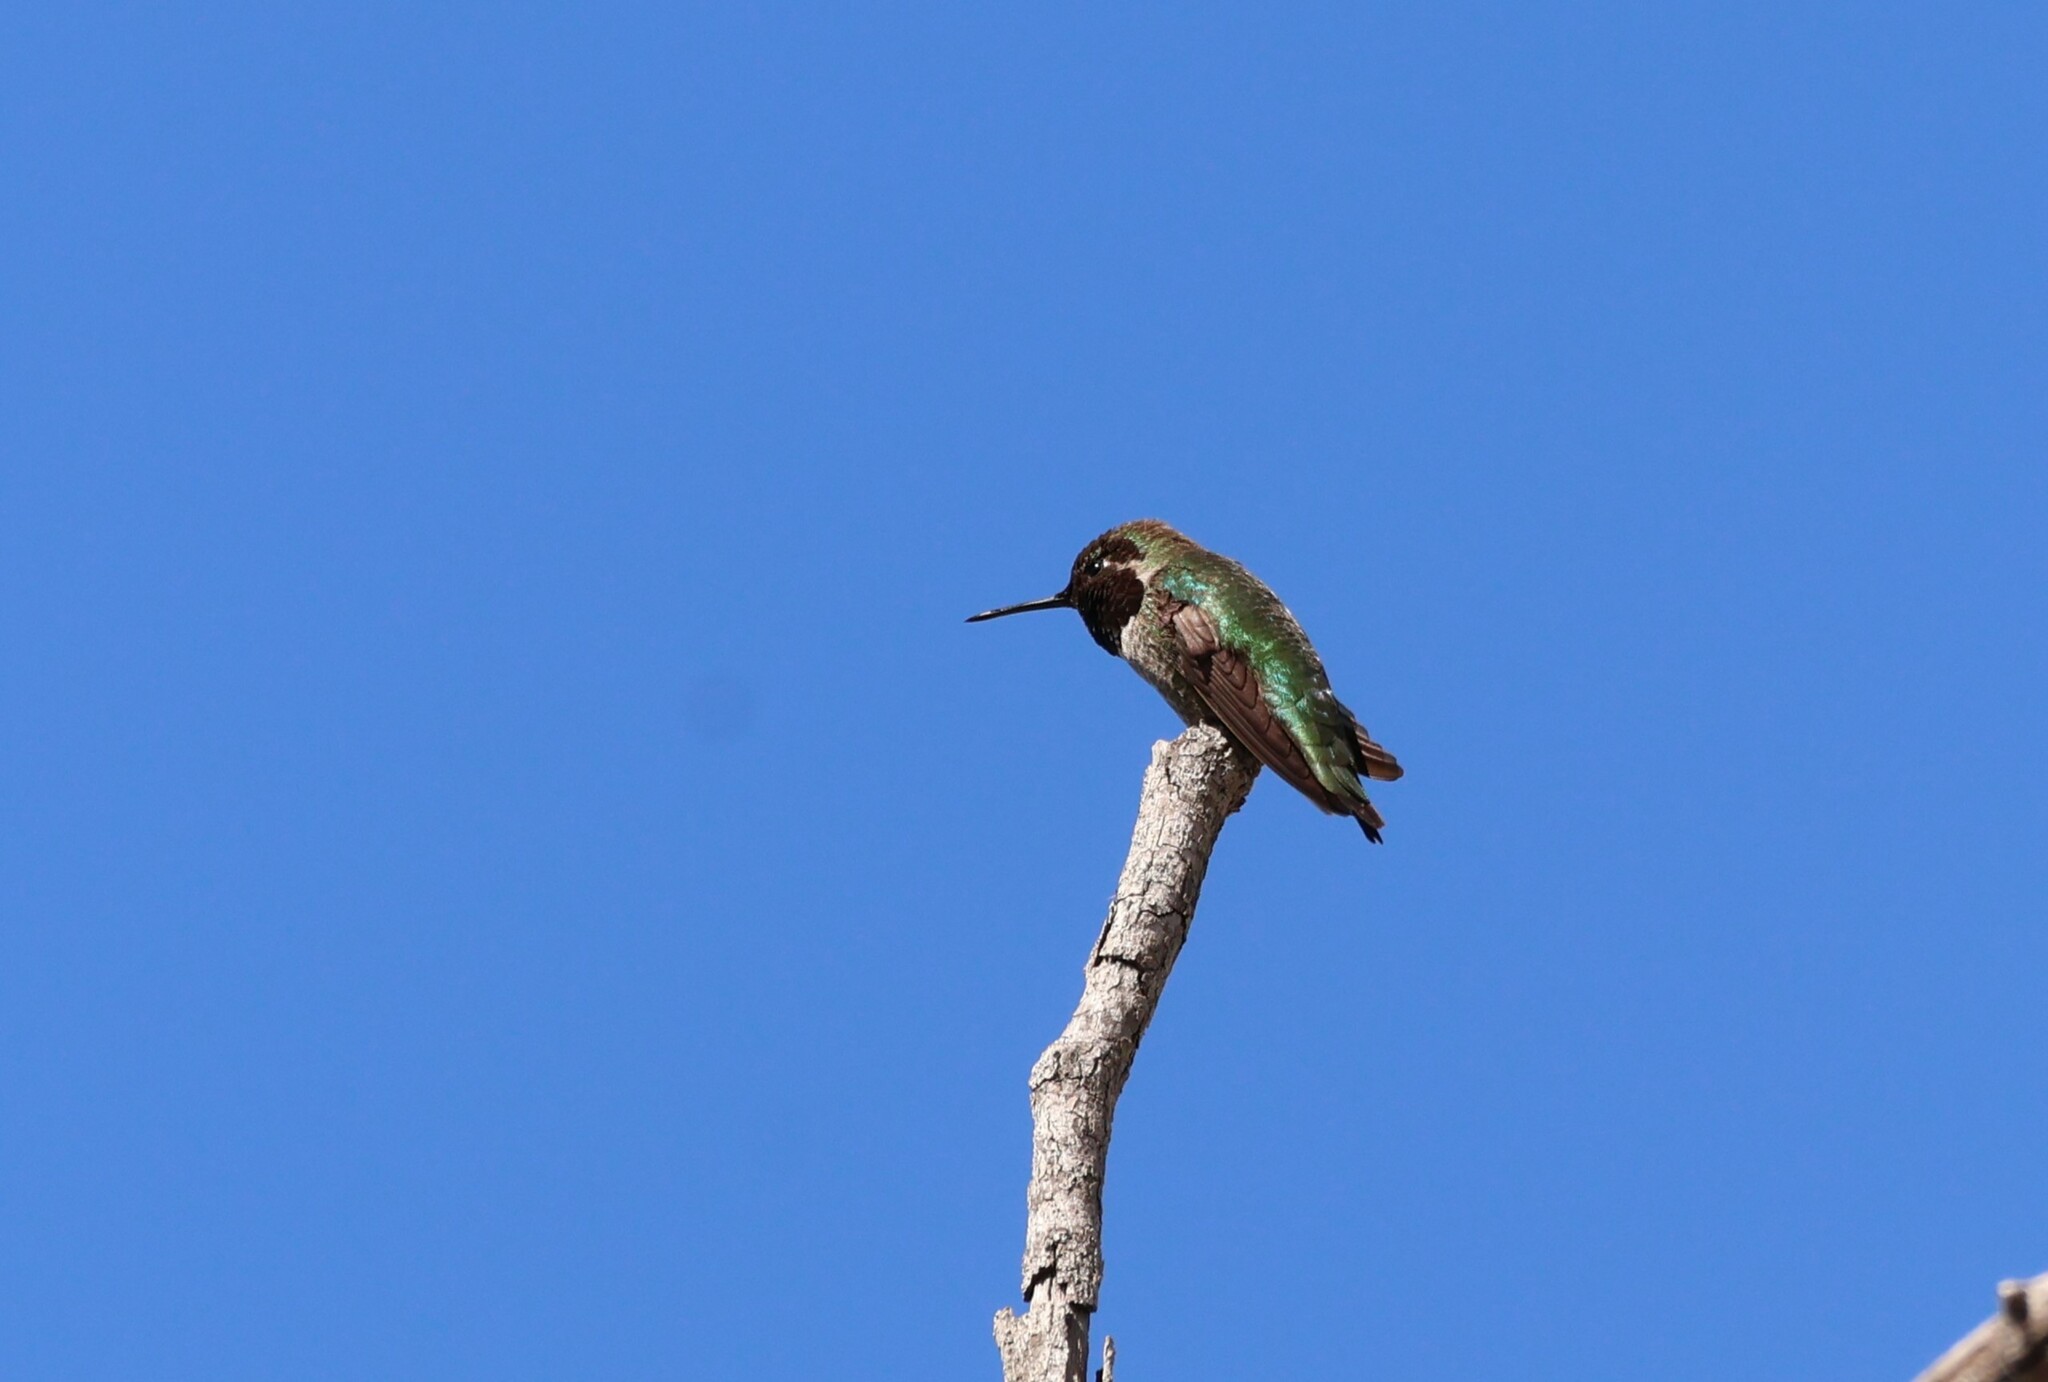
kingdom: Animalia
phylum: Chordata
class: Aves
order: Apodiformes
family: Trochilidae
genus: Calypte
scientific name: Calypte anna
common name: Anna's hummingbird
